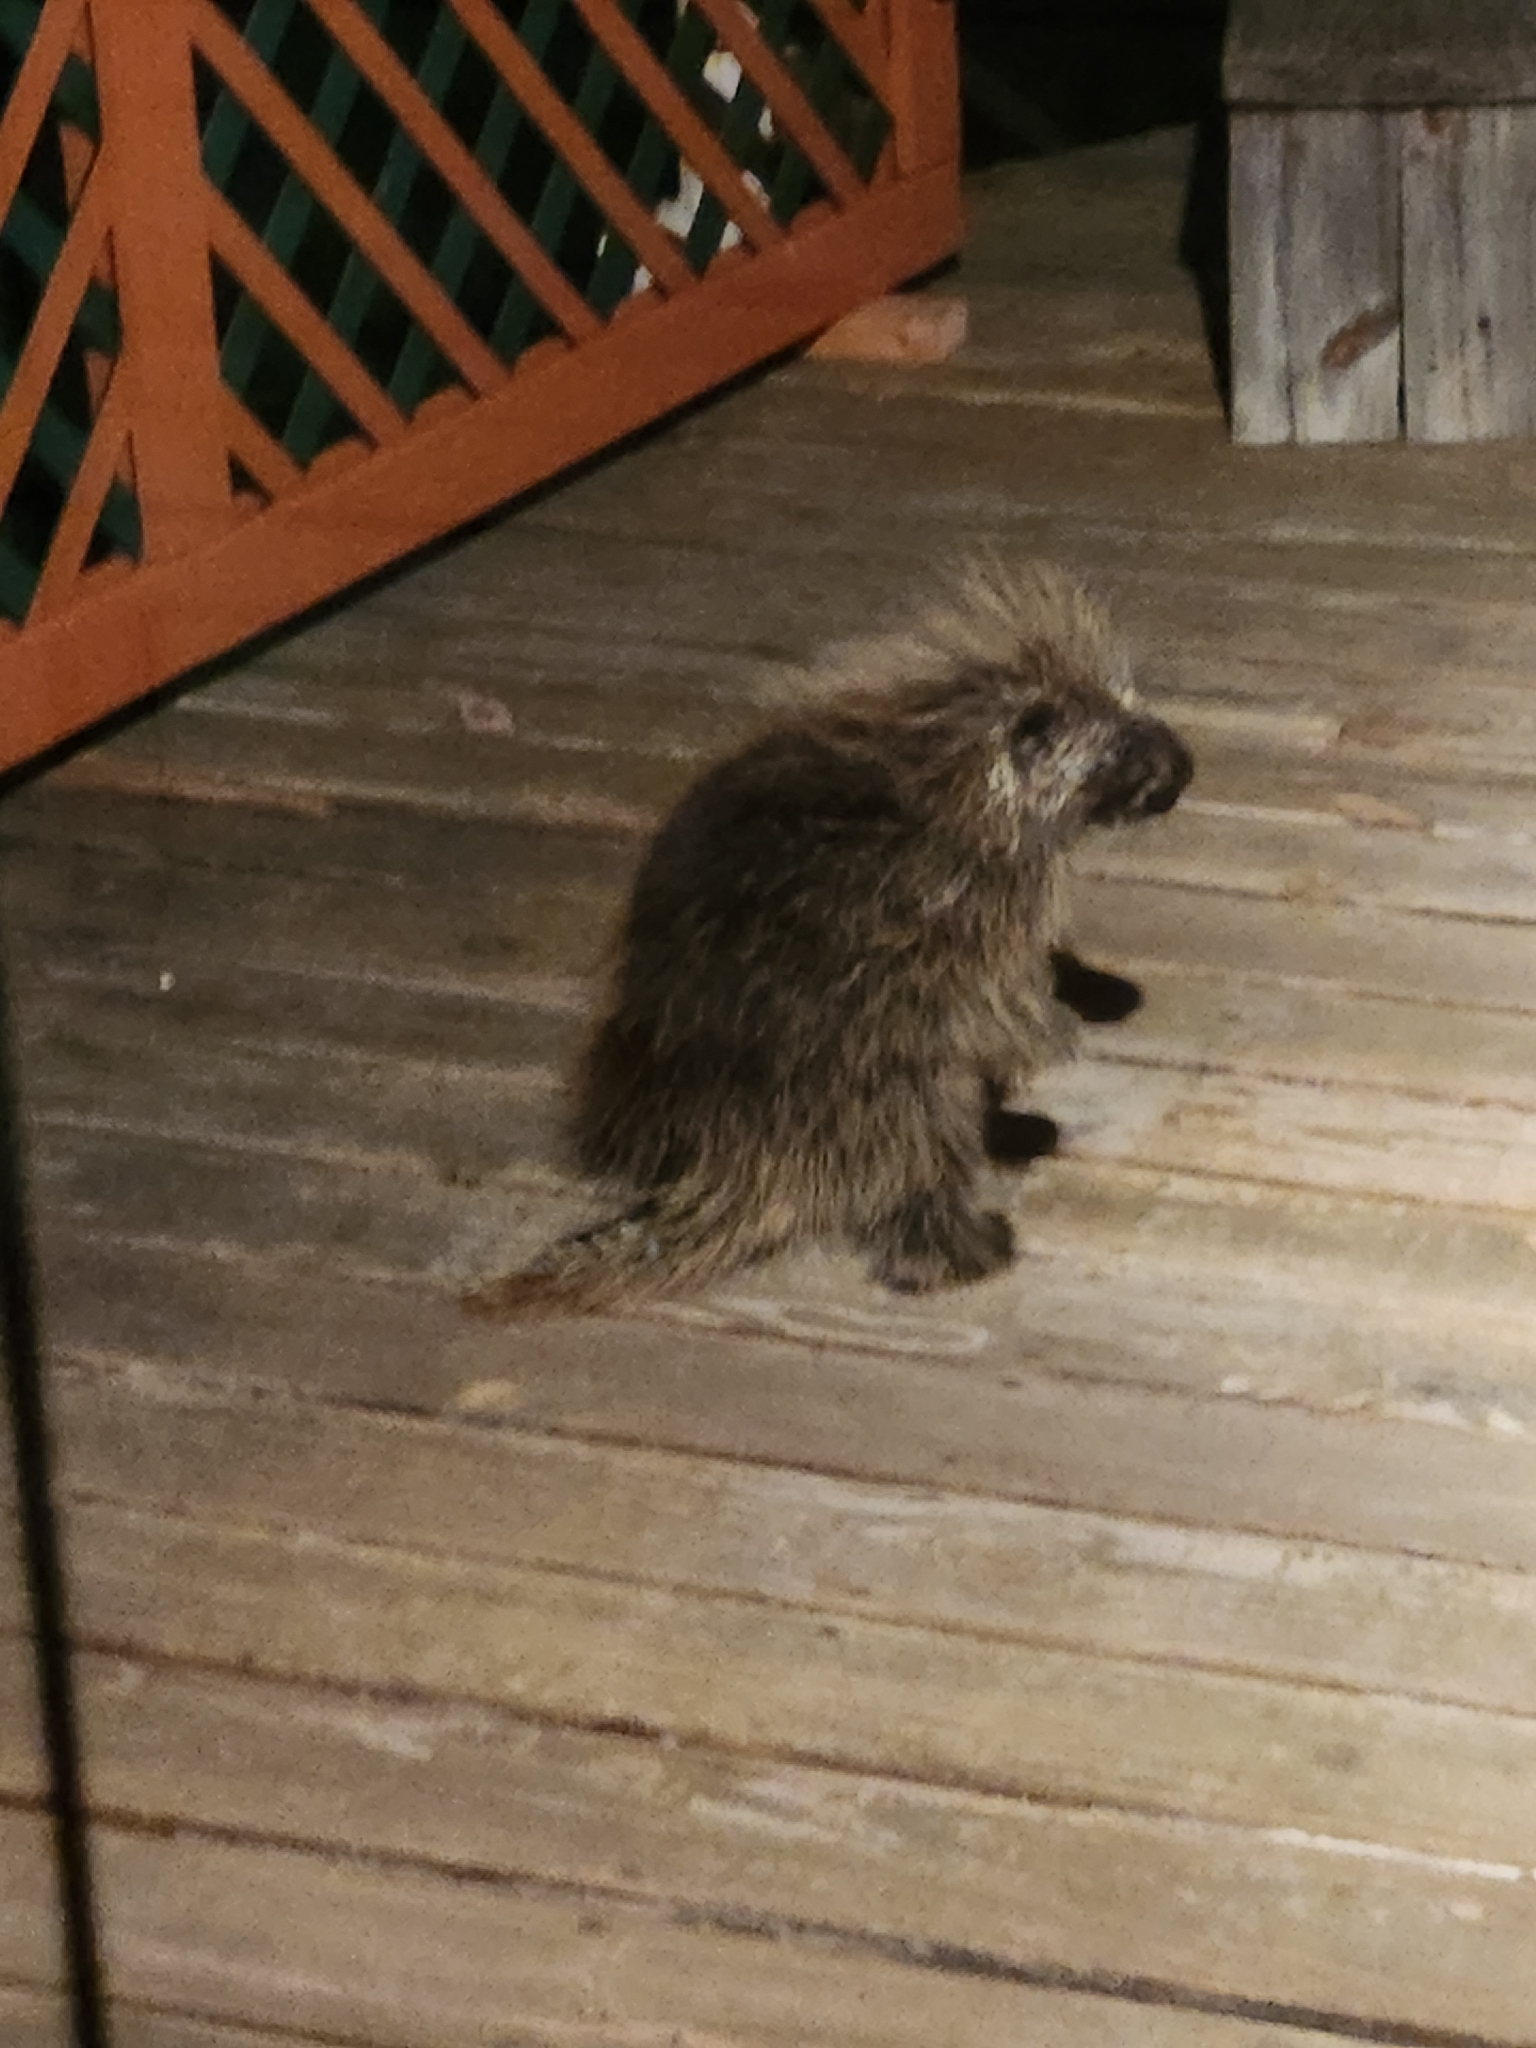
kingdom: Animalia
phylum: Chordata
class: Mammalia
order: Rodentia
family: Erethizontidae
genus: Erethizon
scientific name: Erethizon dorsatus
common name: North american porcupine
